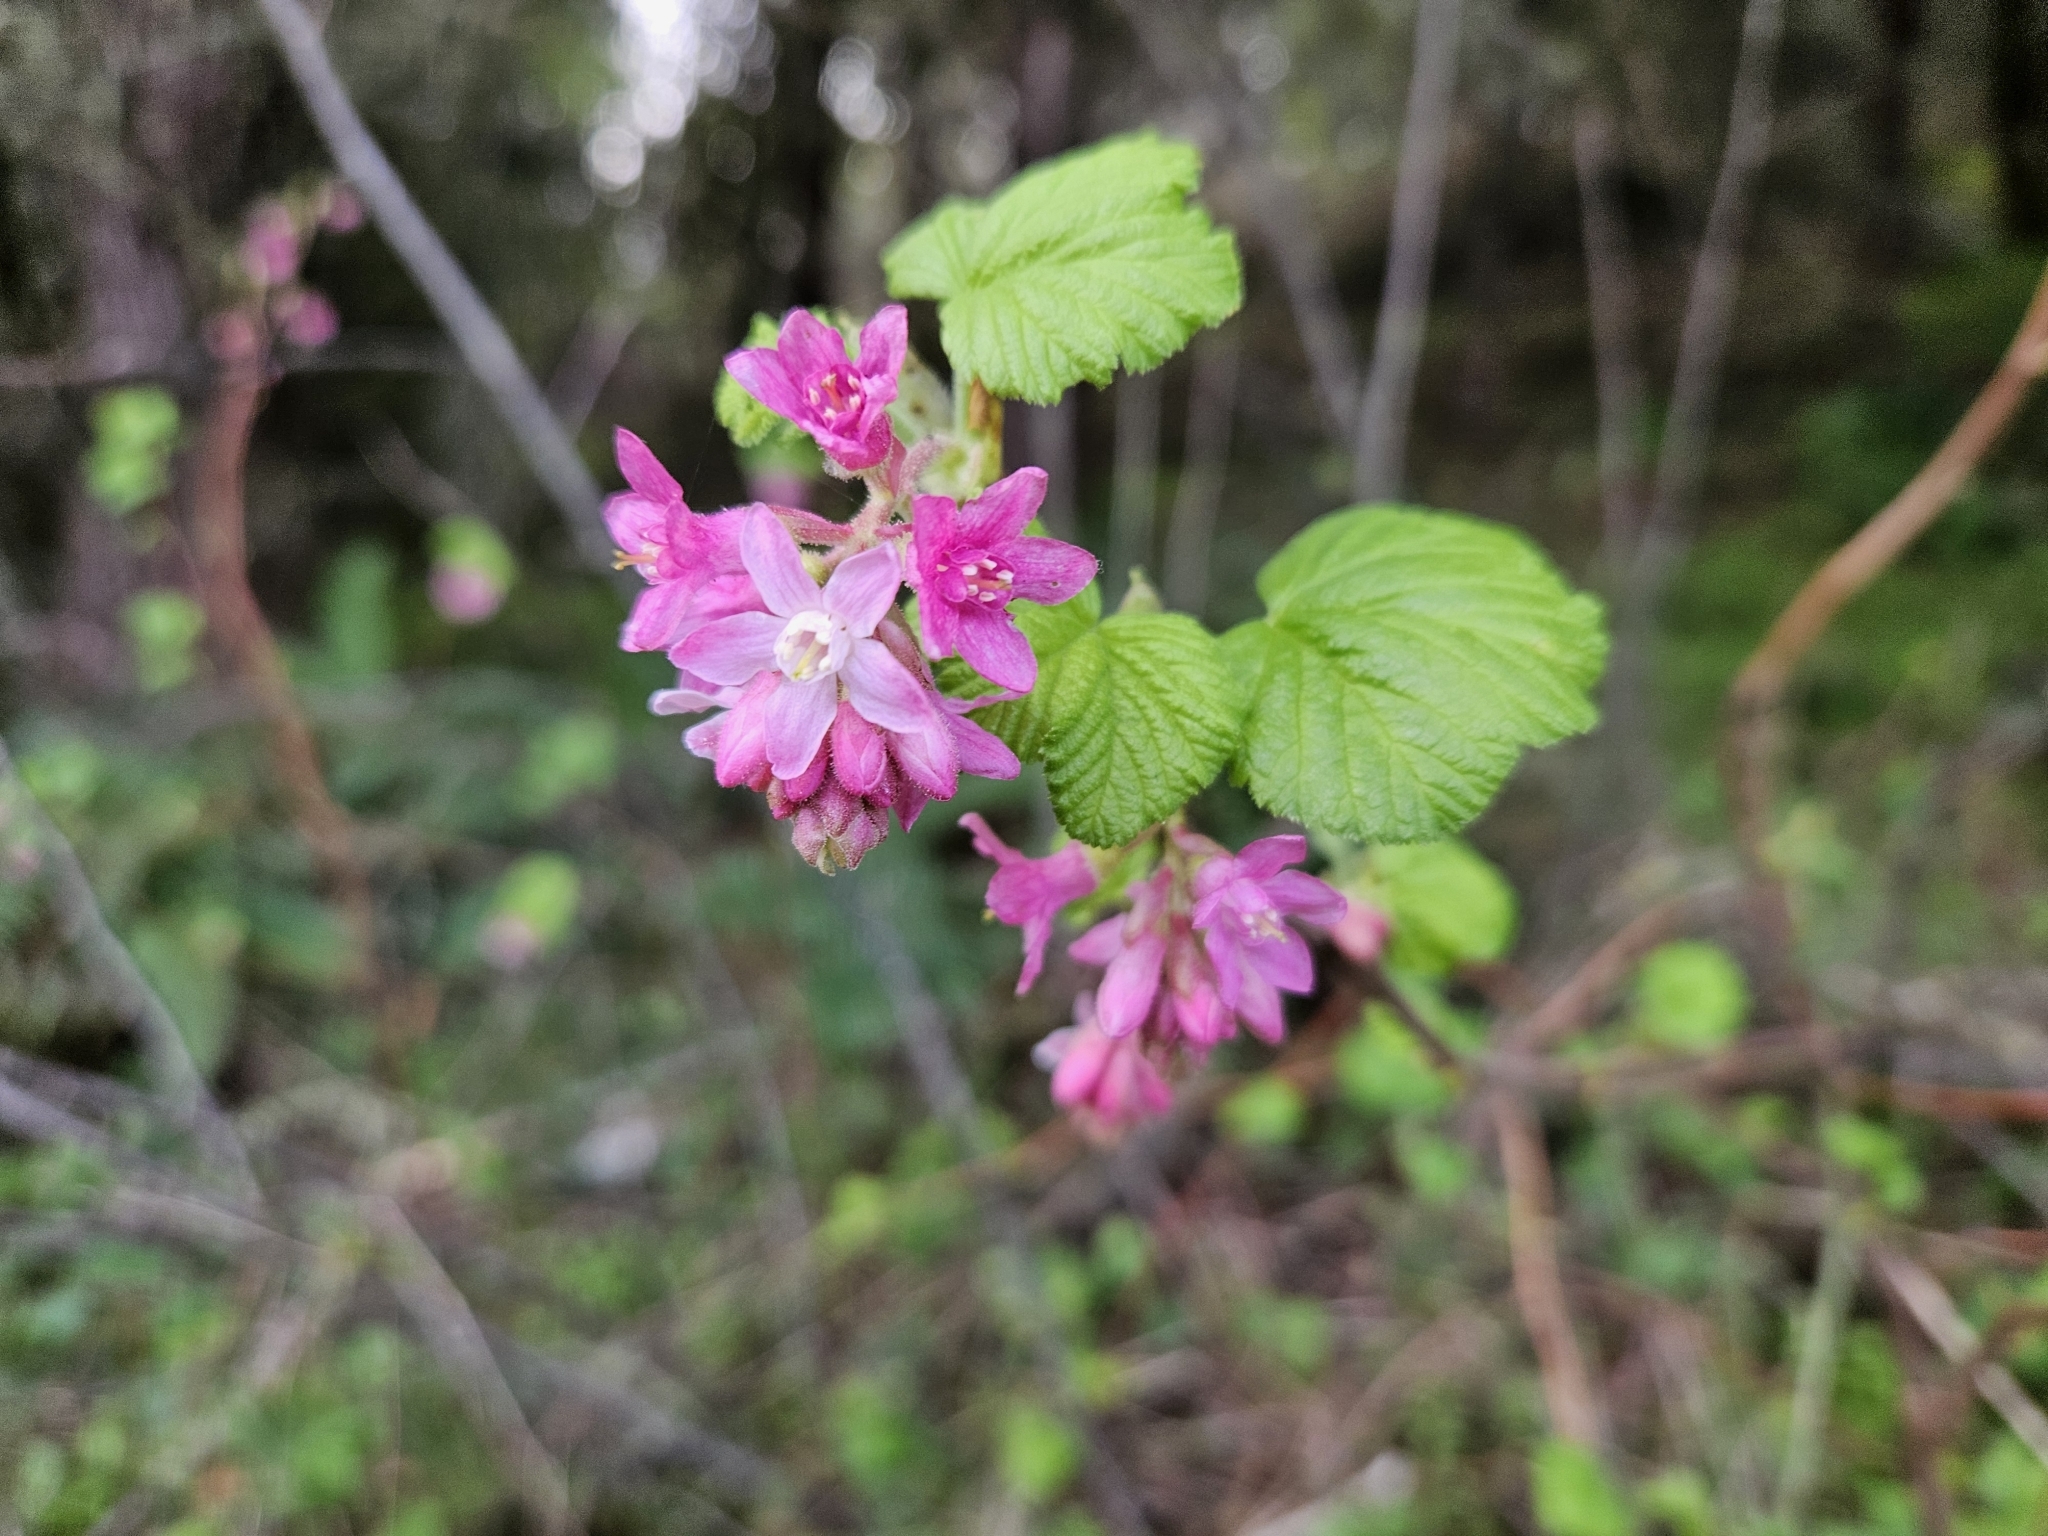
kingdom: Plantae
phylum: Tracheophyta
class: Magnoliopsida
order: Saxifragales
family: Grossulariaceae
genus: Ribes
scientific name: Ribes sanguineum
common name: Flowering currant
